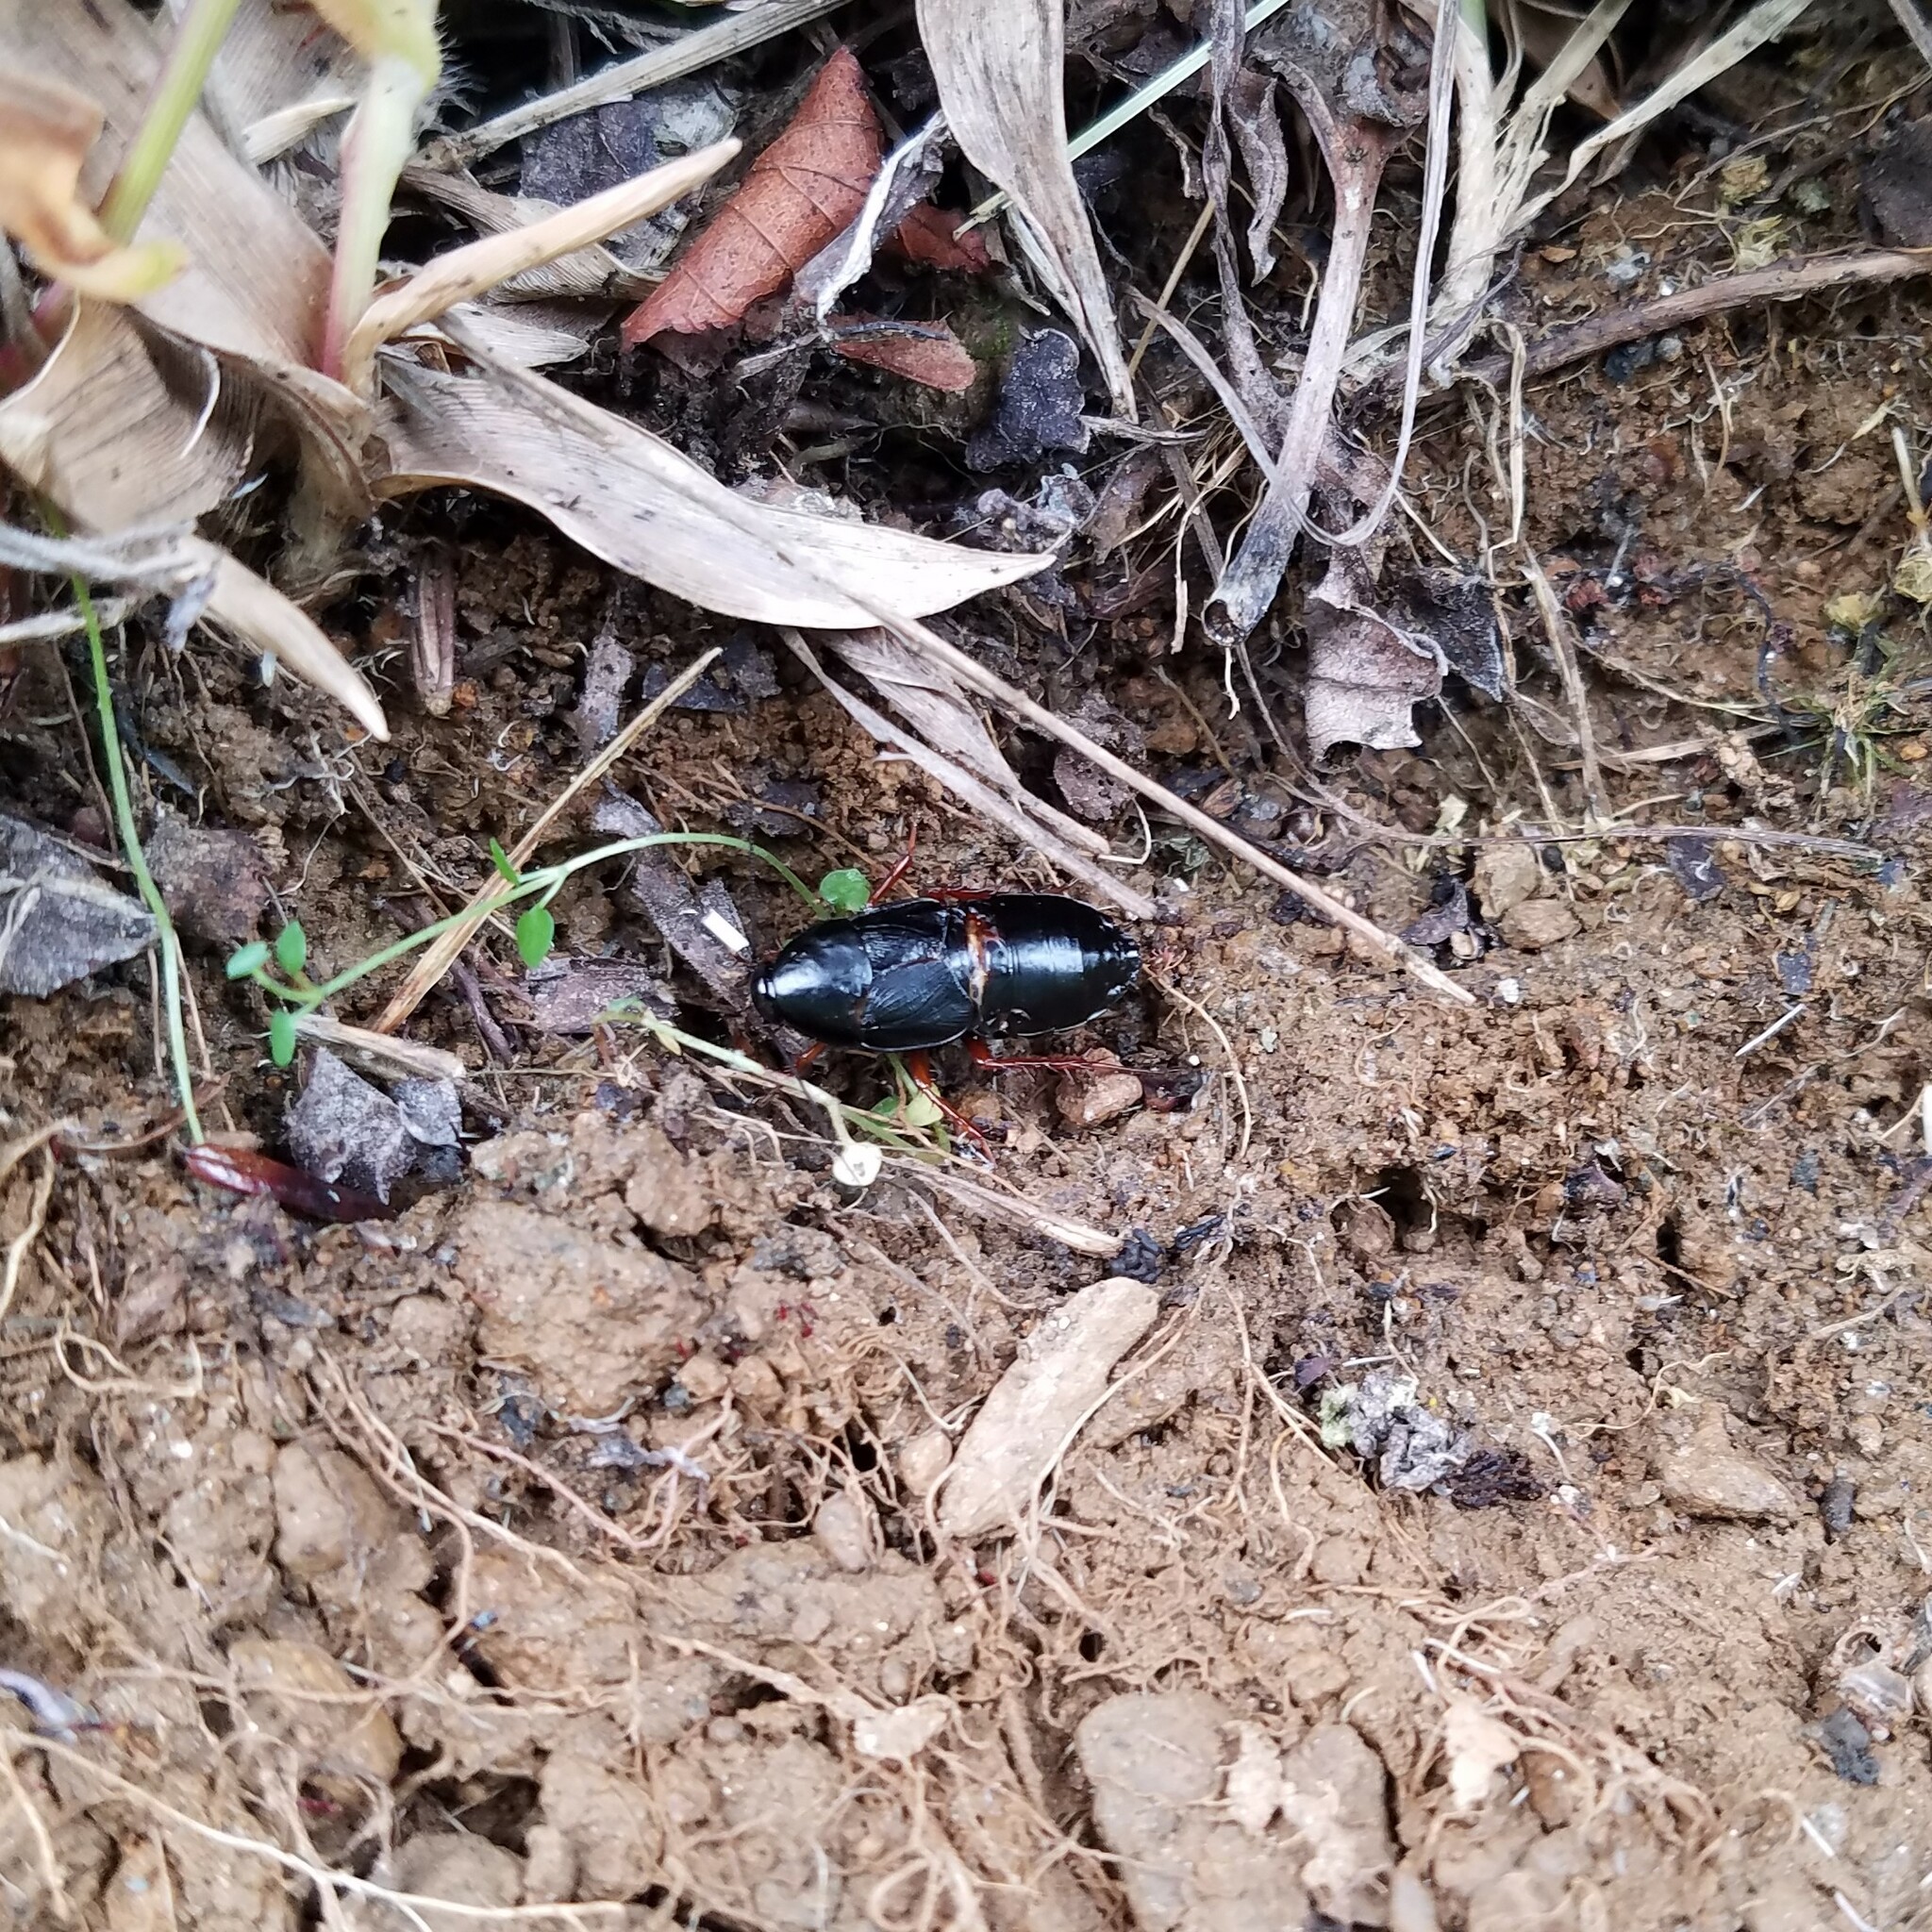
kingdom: Animalia
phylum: Arthropoda
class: Insecta
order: Blattodea
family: Ectobiidae
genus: Ischnoptera
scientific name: Ischnoptera deropeltiformis
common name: Dark wood cockroach
